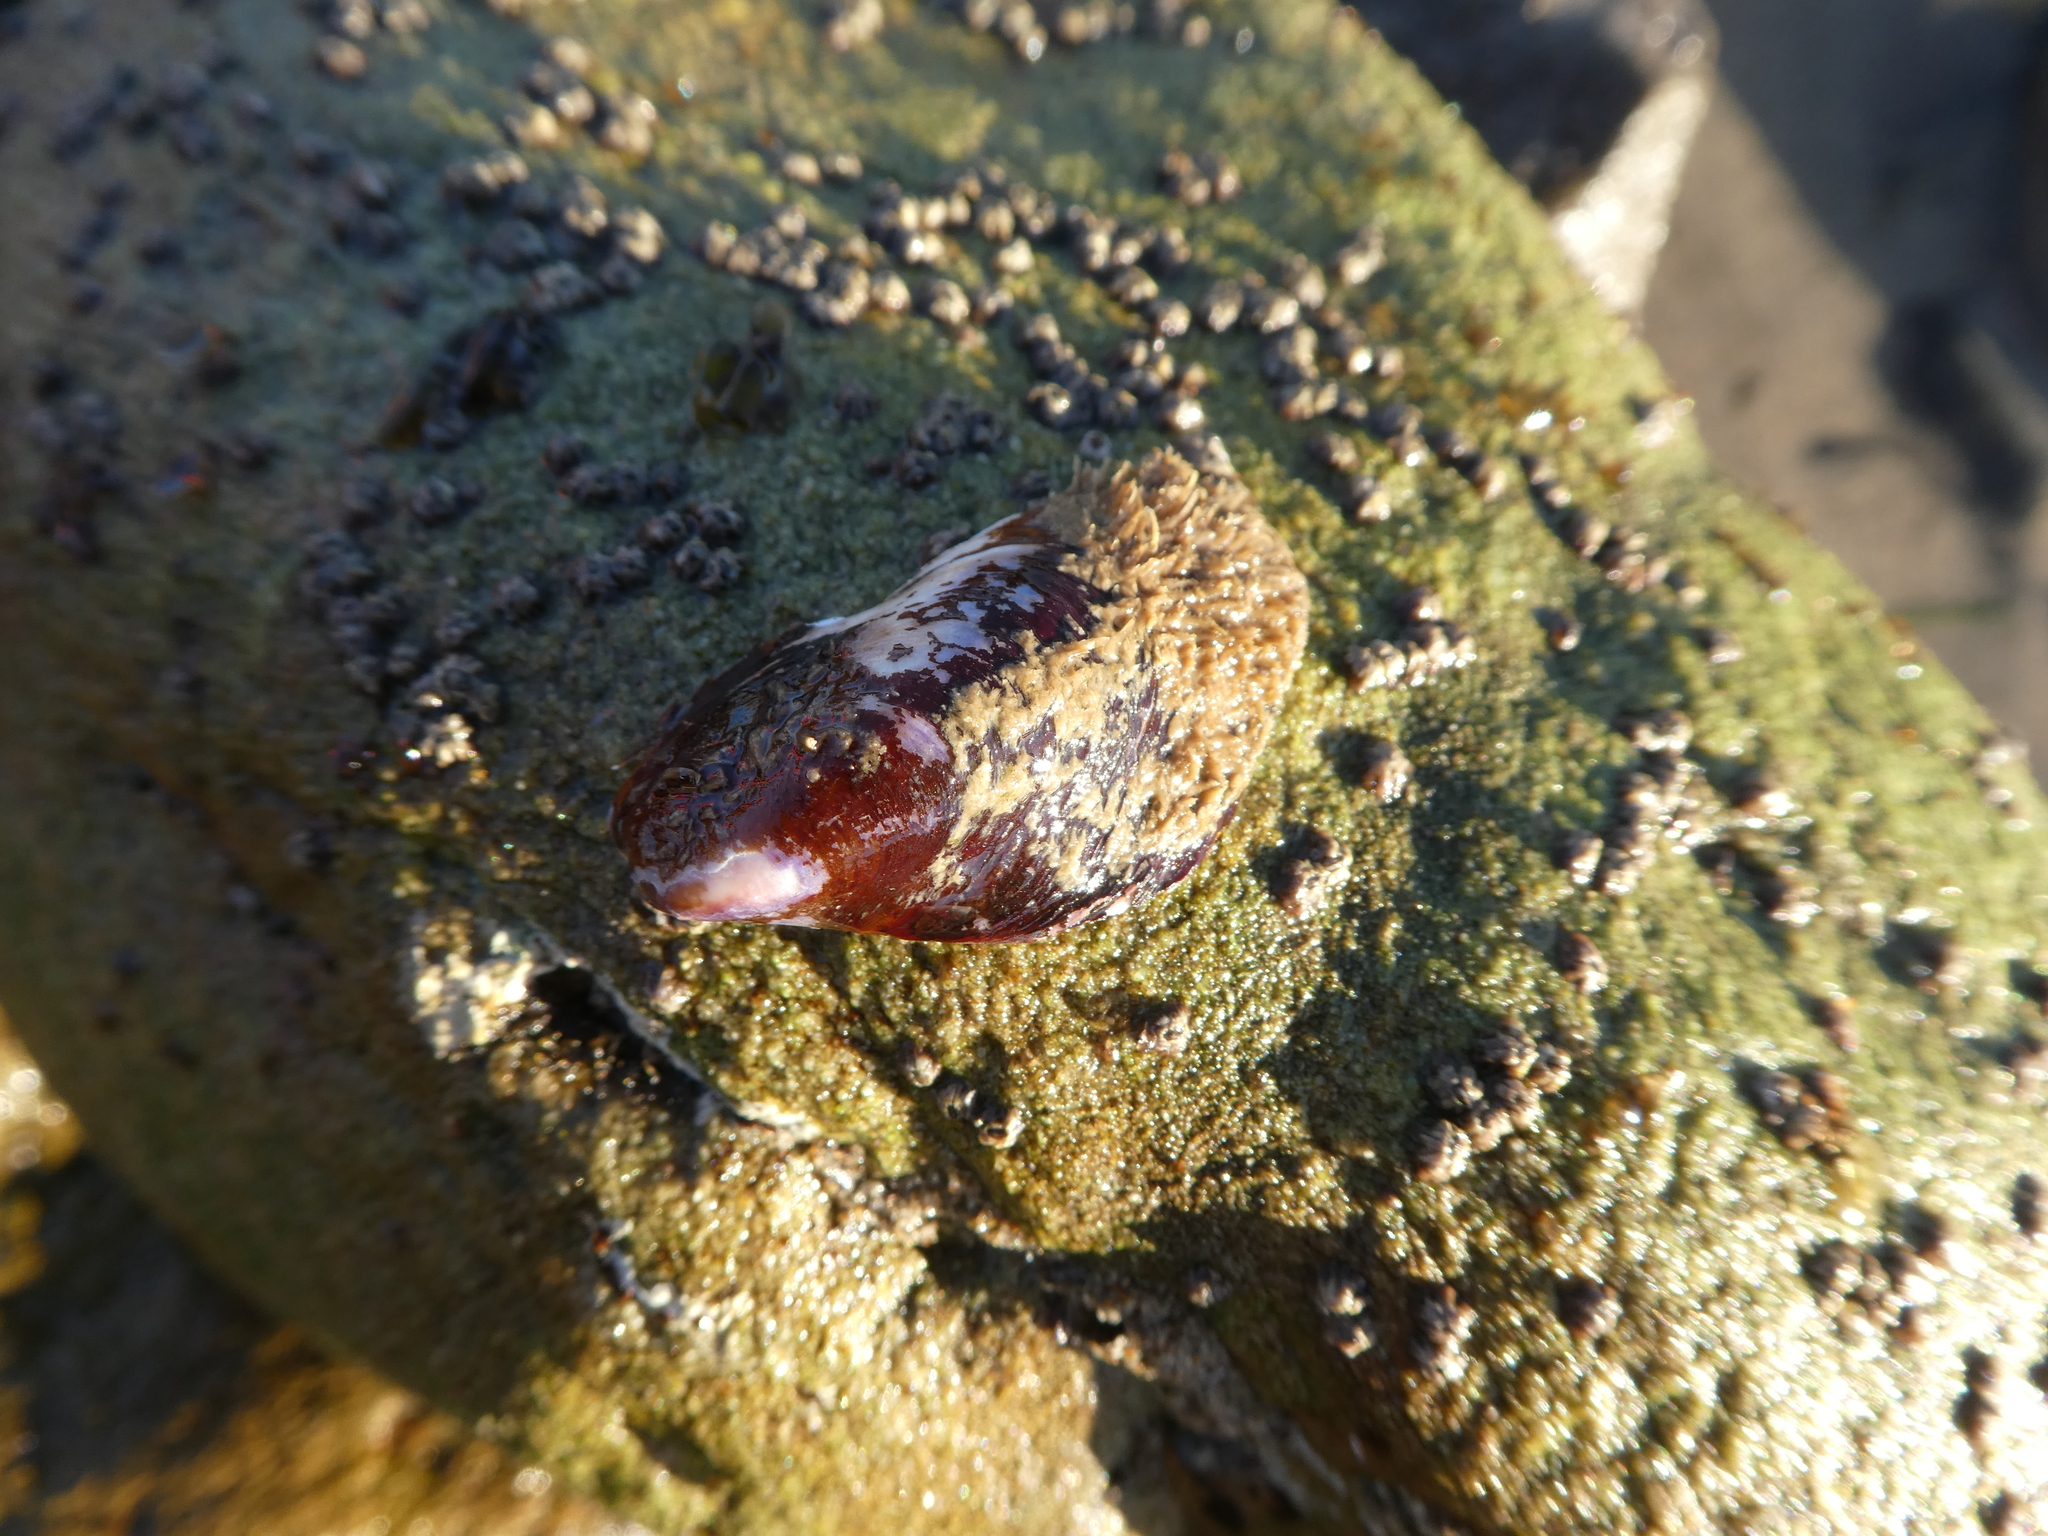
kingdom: Animalia
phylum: Mollusca
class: Bivalvia
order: Mytilida
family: Mytilidae
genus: Modiolus
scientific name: Modiolus capax
